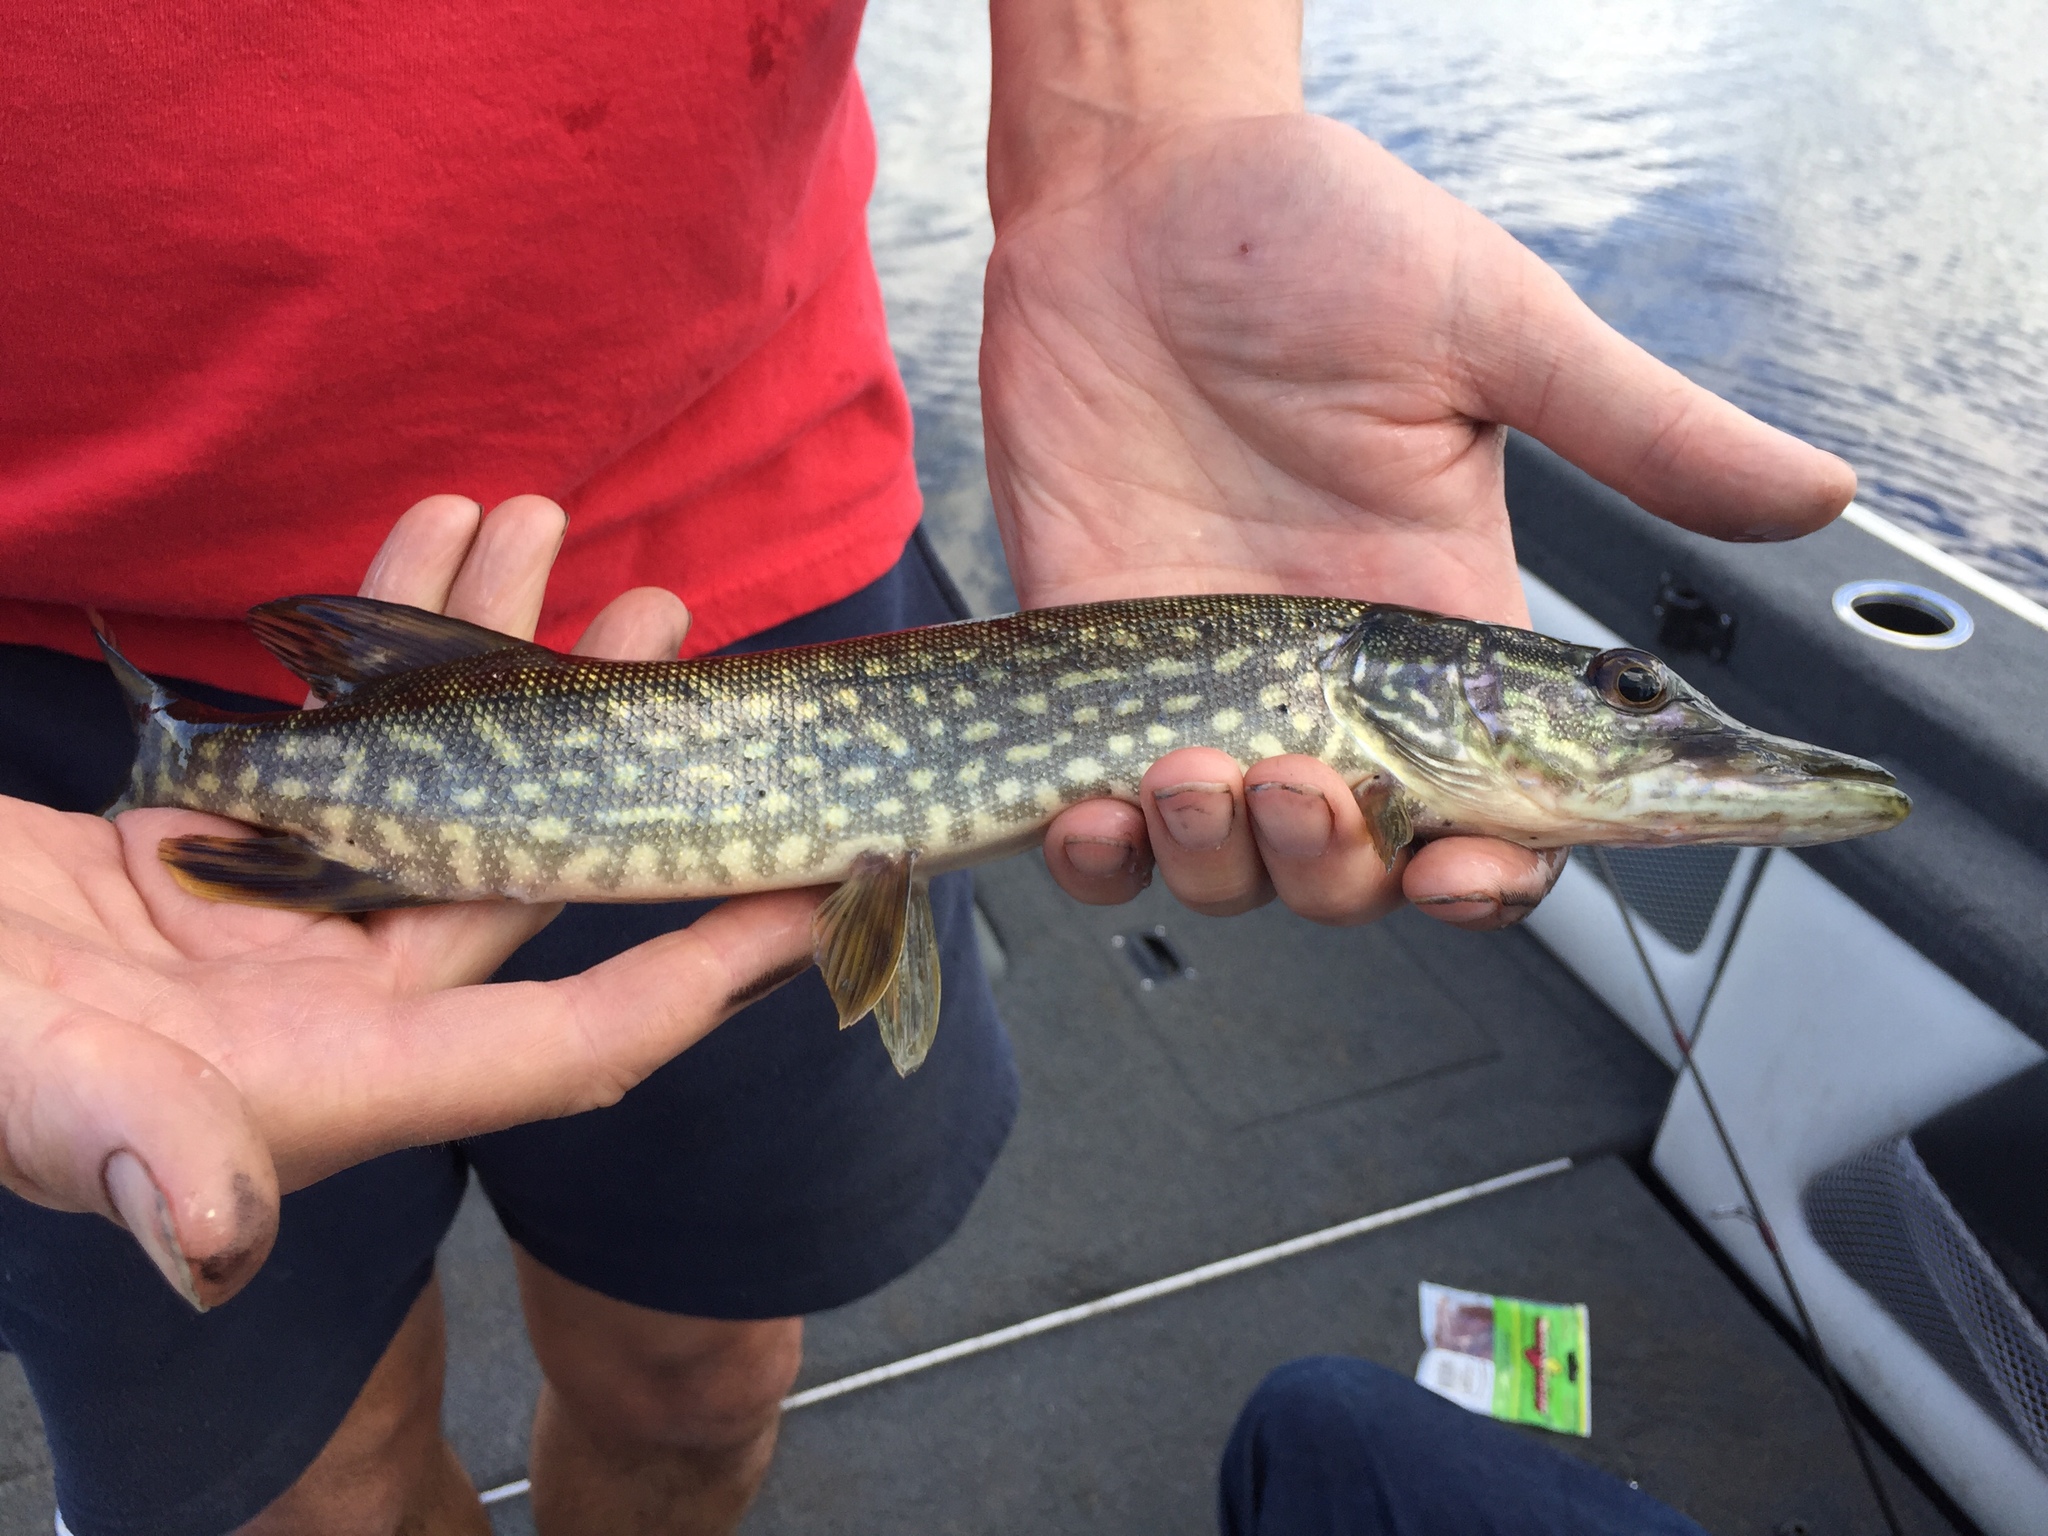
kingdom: Animalia
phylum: Chordata
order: Esociformes
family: Esocidae
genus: Esox
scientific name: Esox lucius
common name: Northern pike
